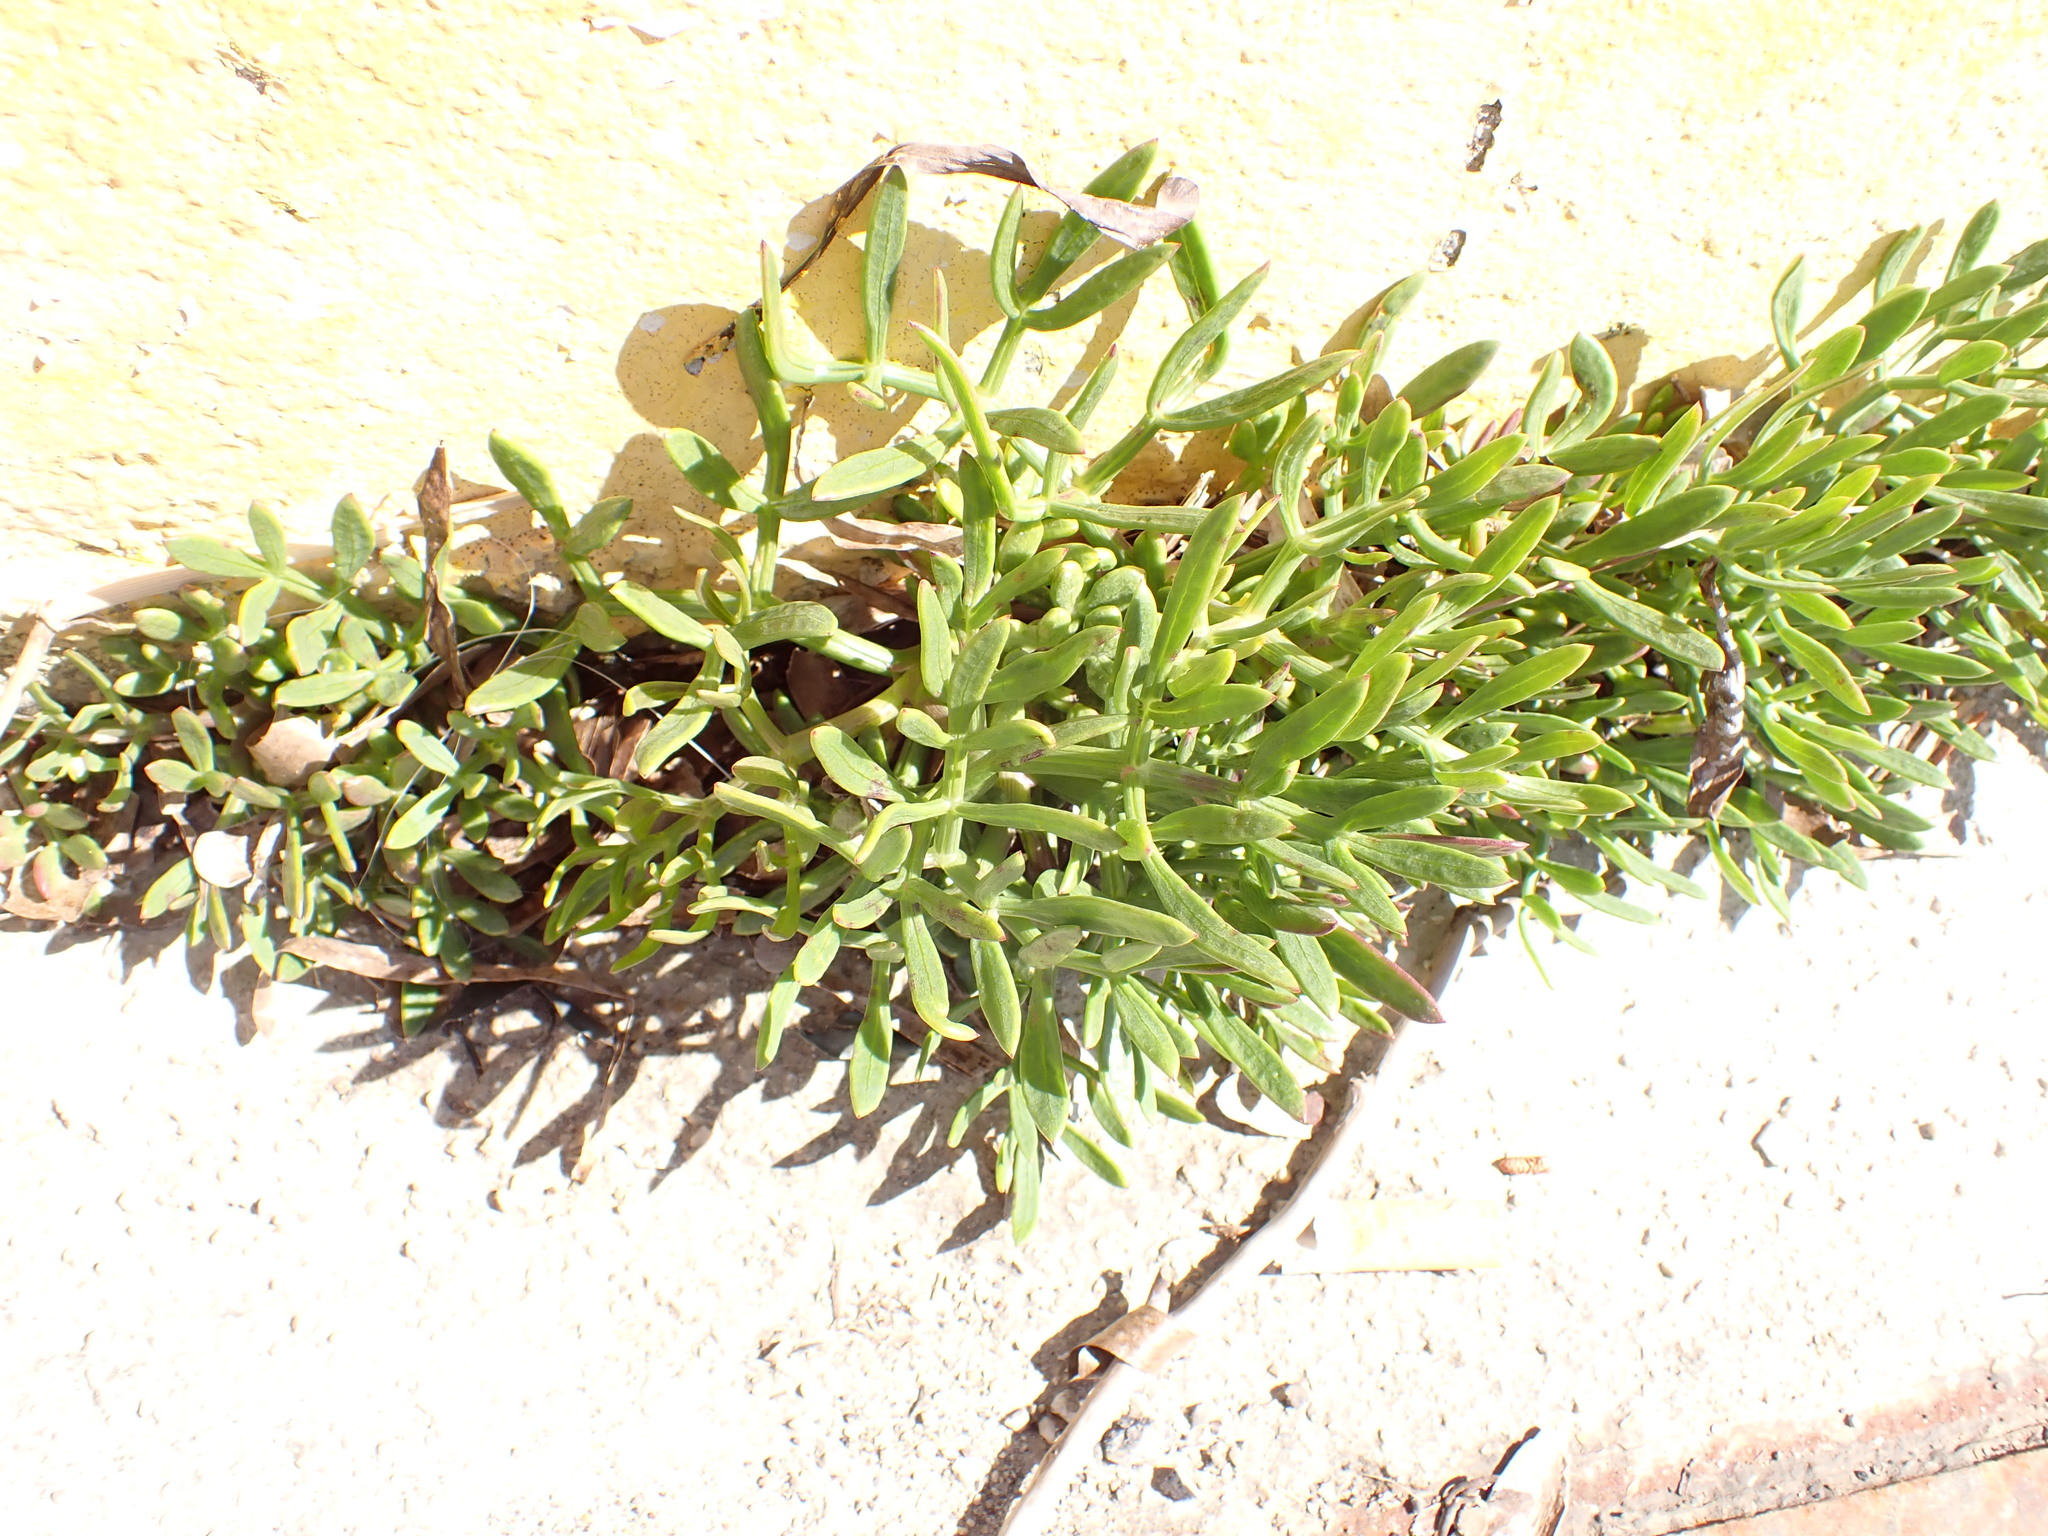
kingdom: Plantae
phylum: Tracheophyta
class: Magnoliopsida
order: Apiales
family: Apiaceae
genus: Crithmum
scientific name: Crithmum maritimum
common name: Rock samphire
